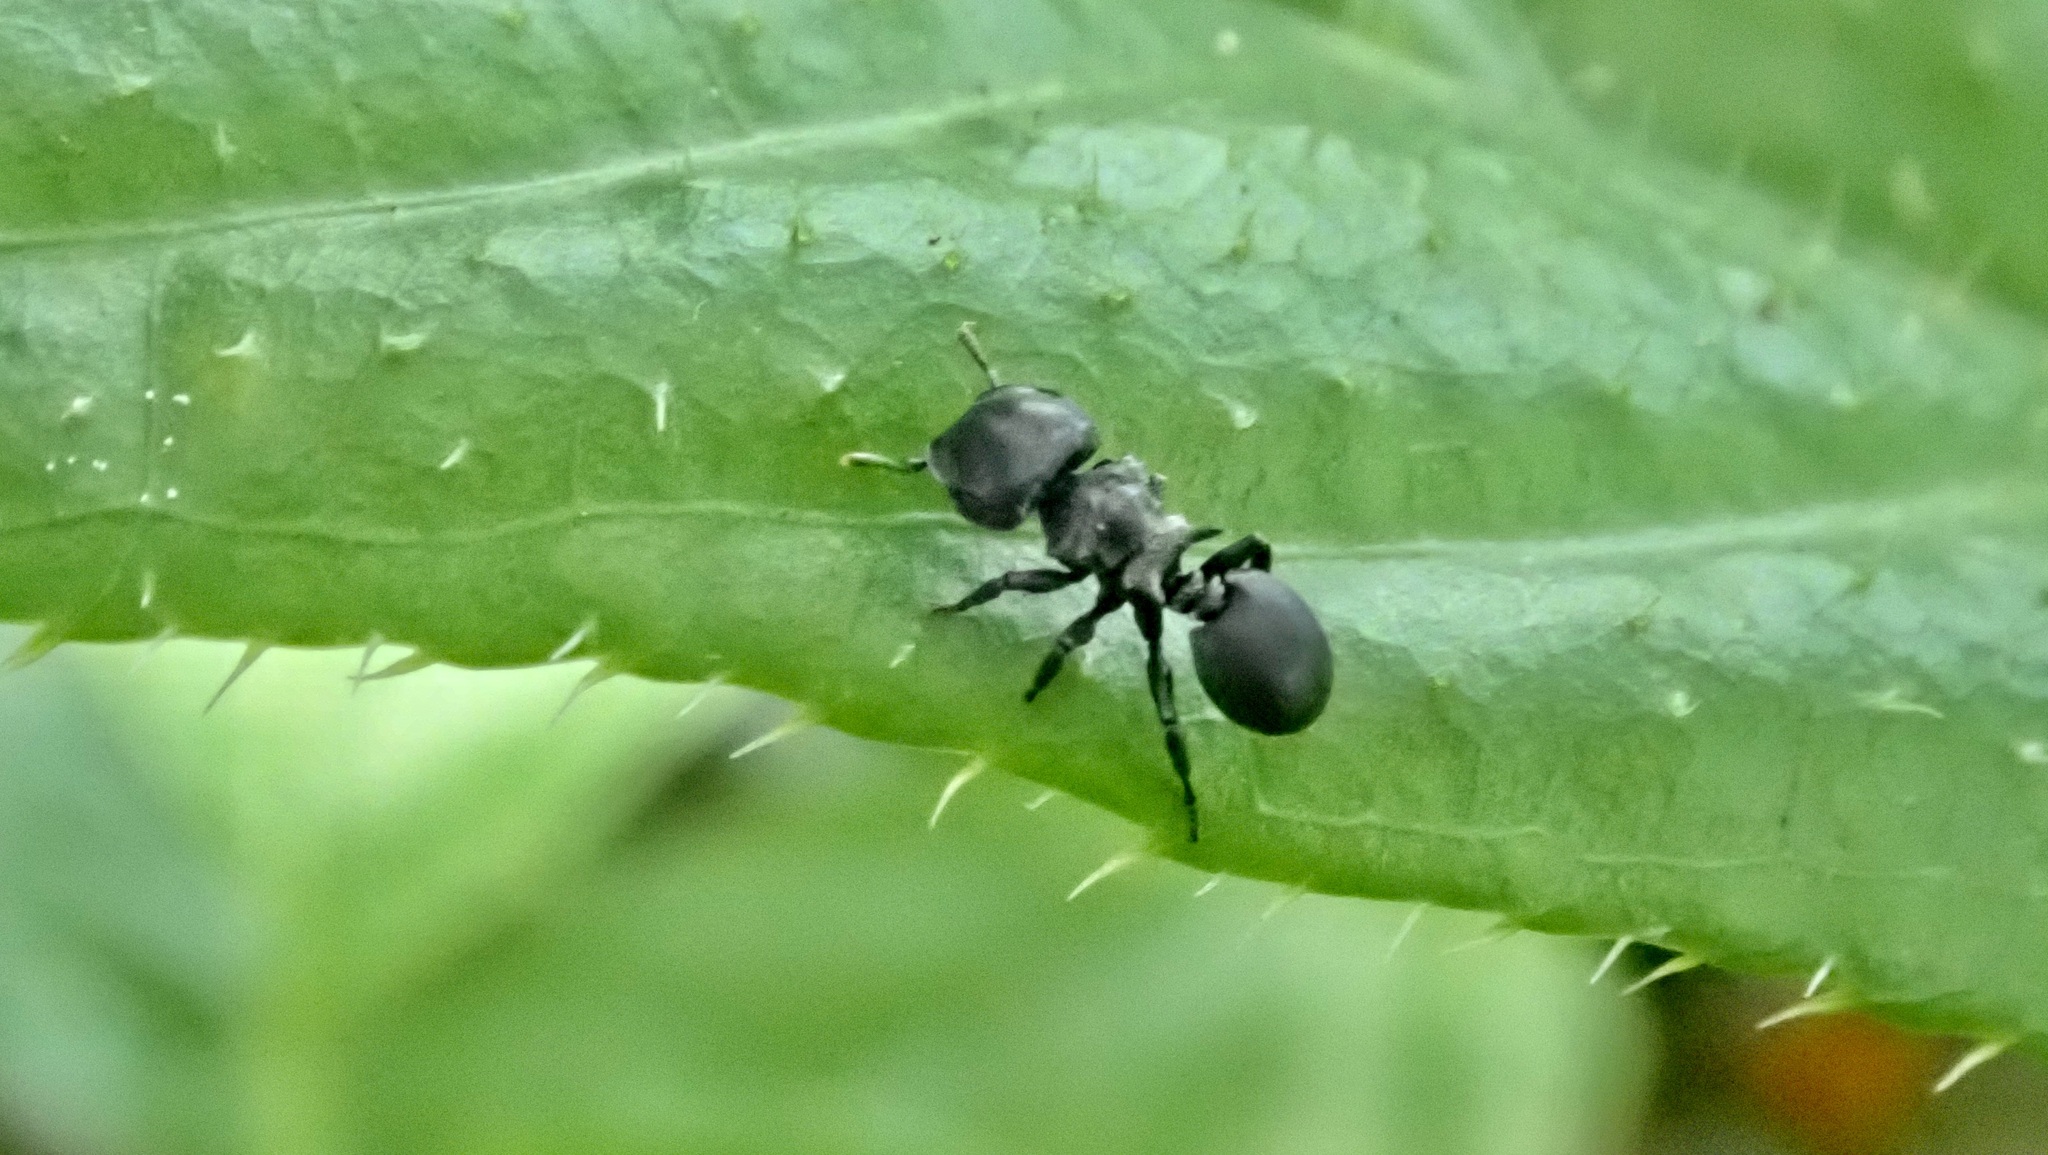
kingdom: Animalia
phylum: Arthropoda
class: Insecta
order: Hymenoptera
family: Formicidae
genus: Cephalotes
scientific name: Cephalotes pusillus
